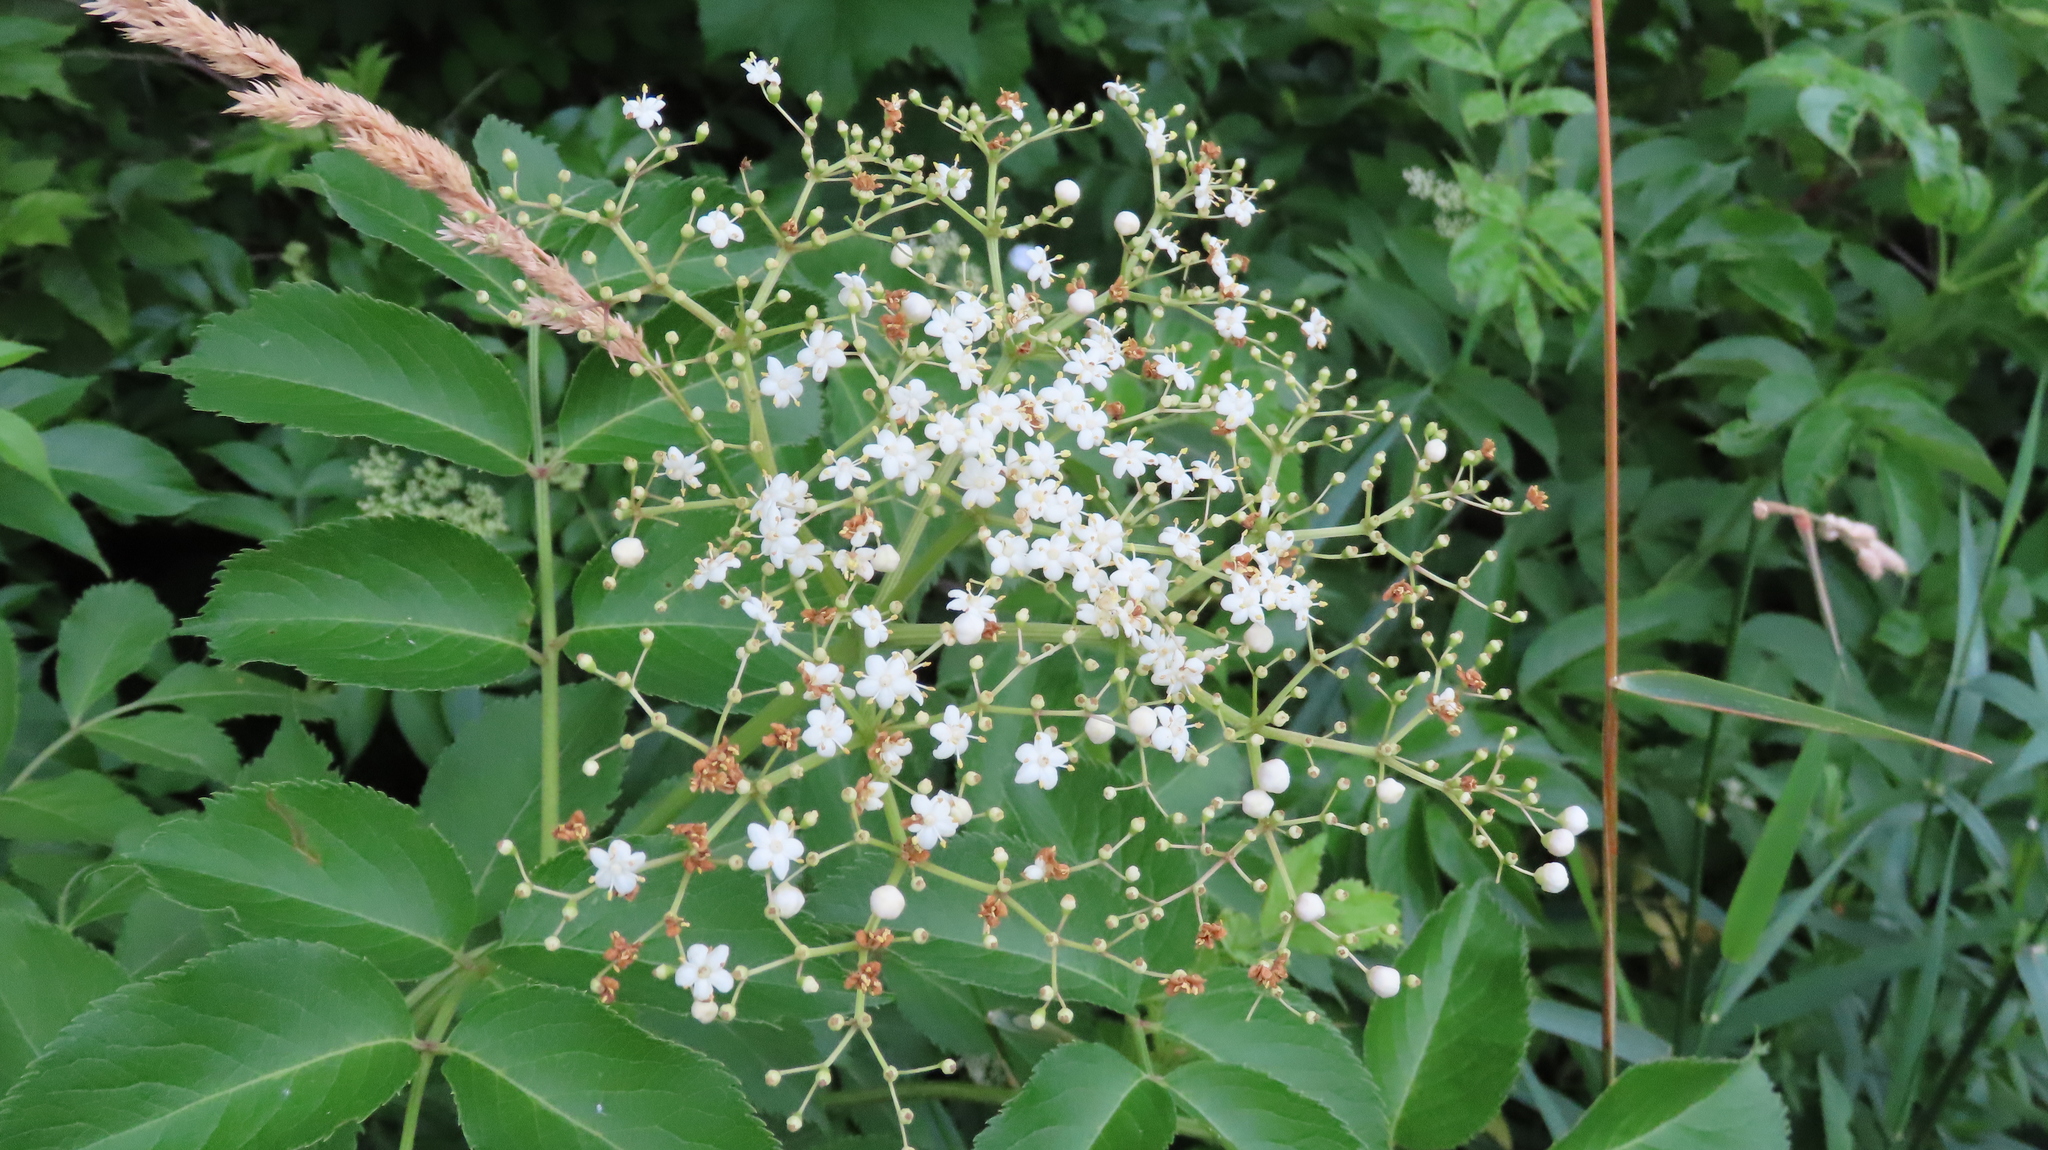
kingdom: Plantae
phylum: Tracheophyta
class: Magnoliopsida
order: Dipsacales
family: Viburnaceae
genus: Sambucus
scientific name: Sambucus canadensis
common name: American elder
